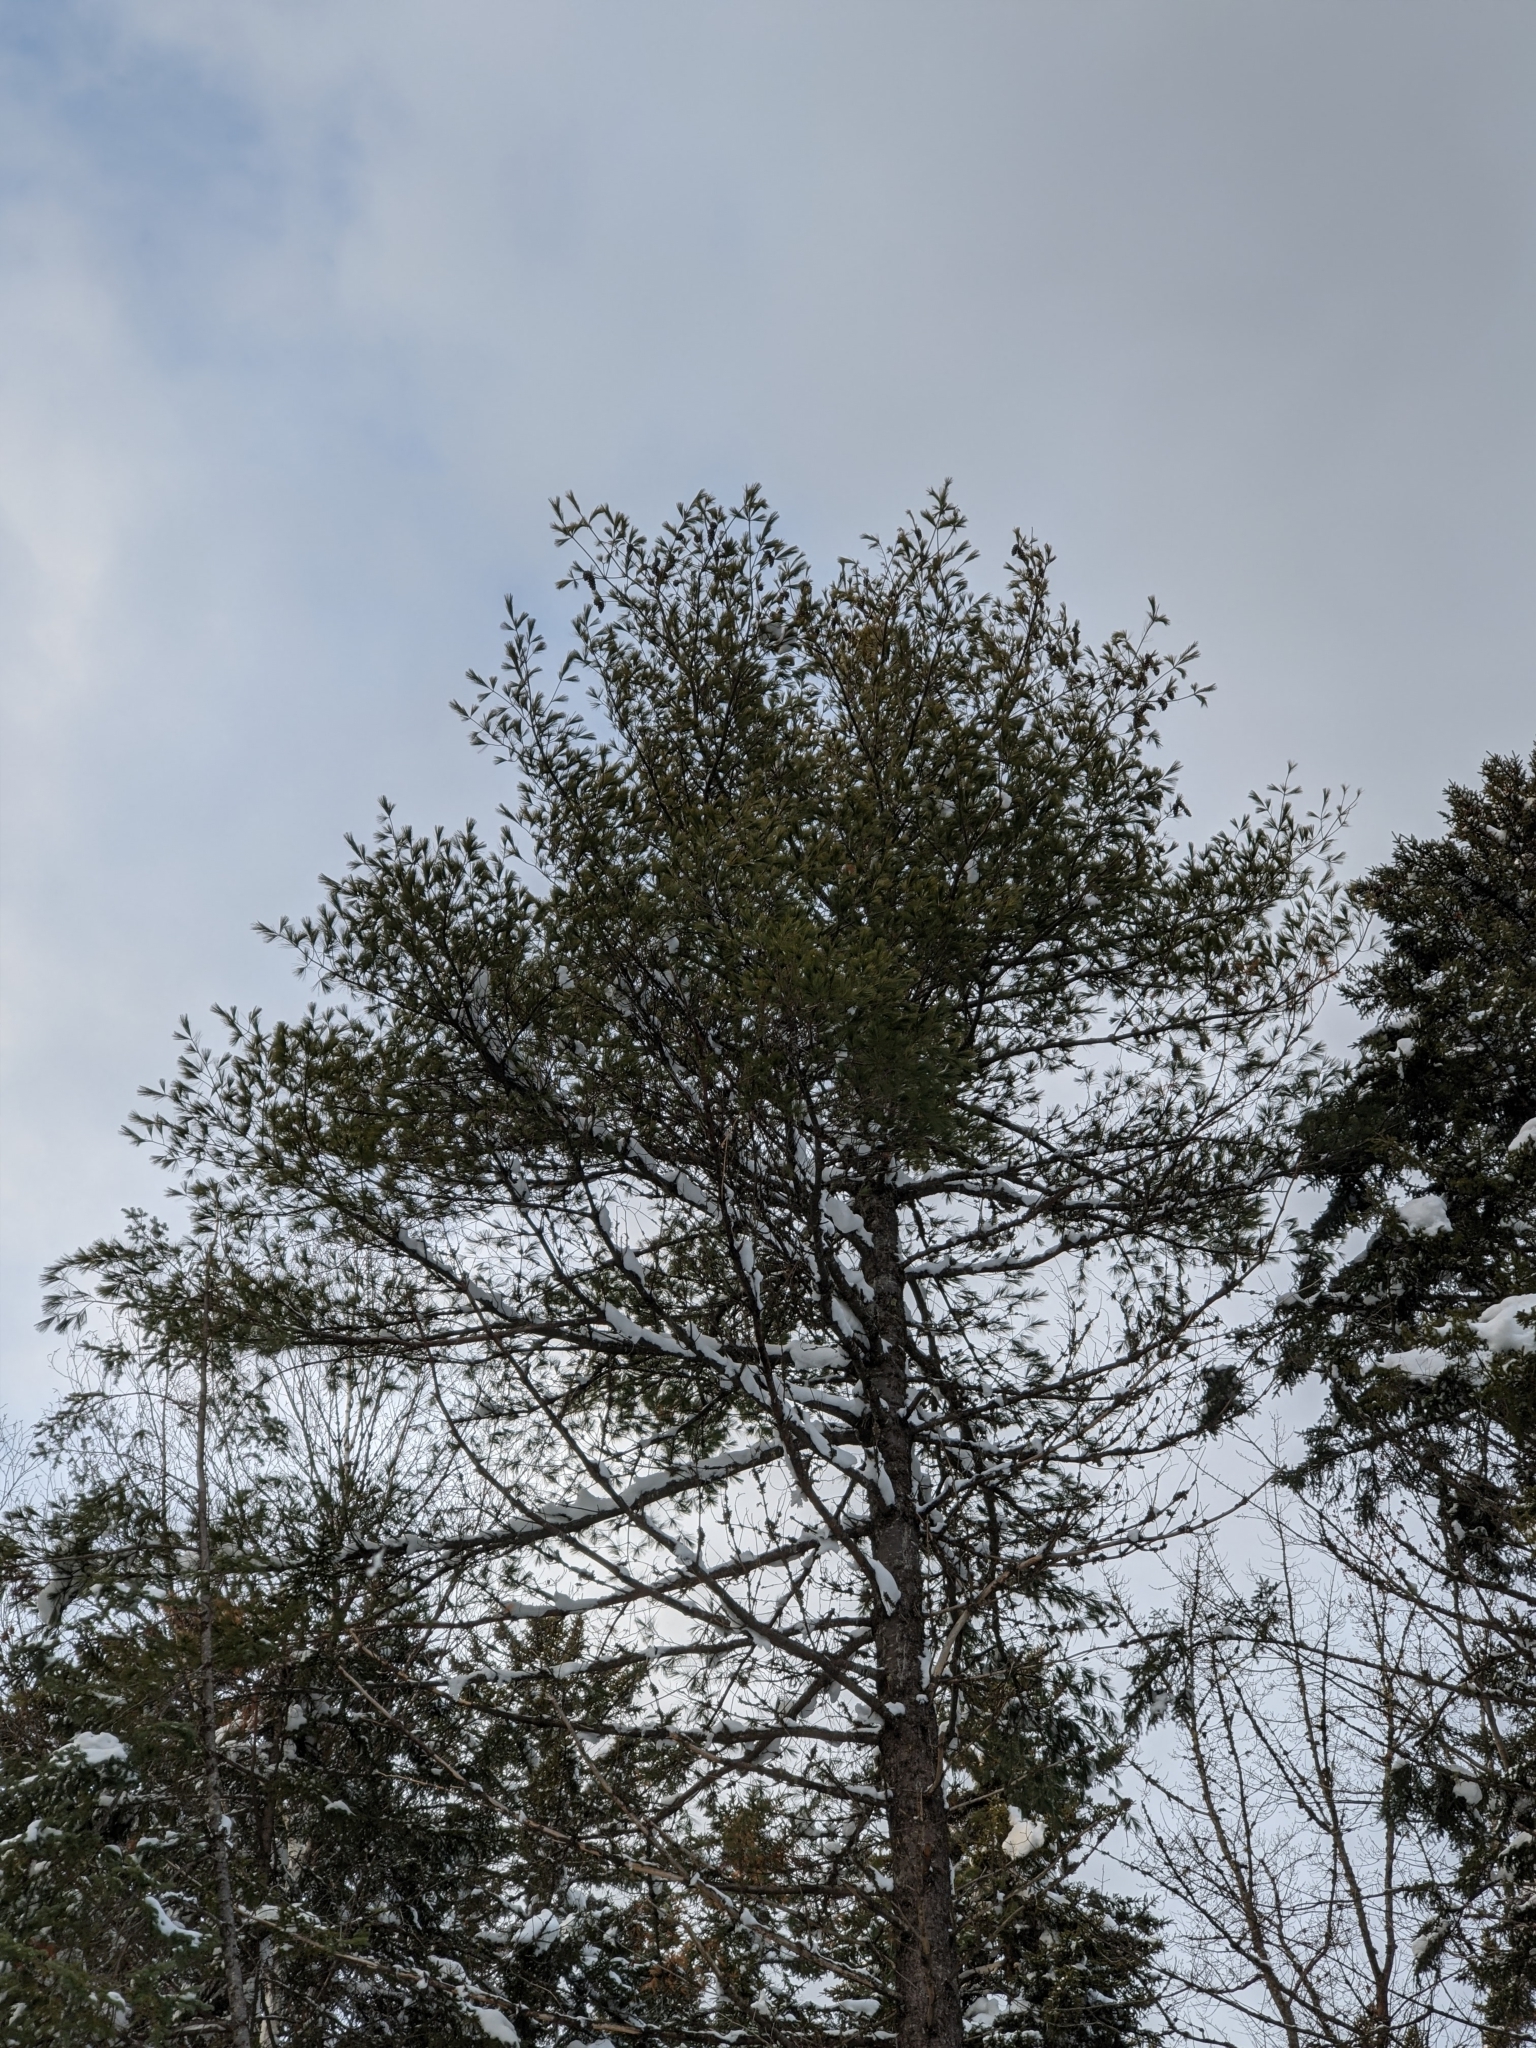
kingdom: Plantae
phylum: Tracheophyta
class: Pinopsida
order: Pinales
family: Pinaceae
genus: Pinus
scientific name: Pinus strobus
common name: Weymouth pine
